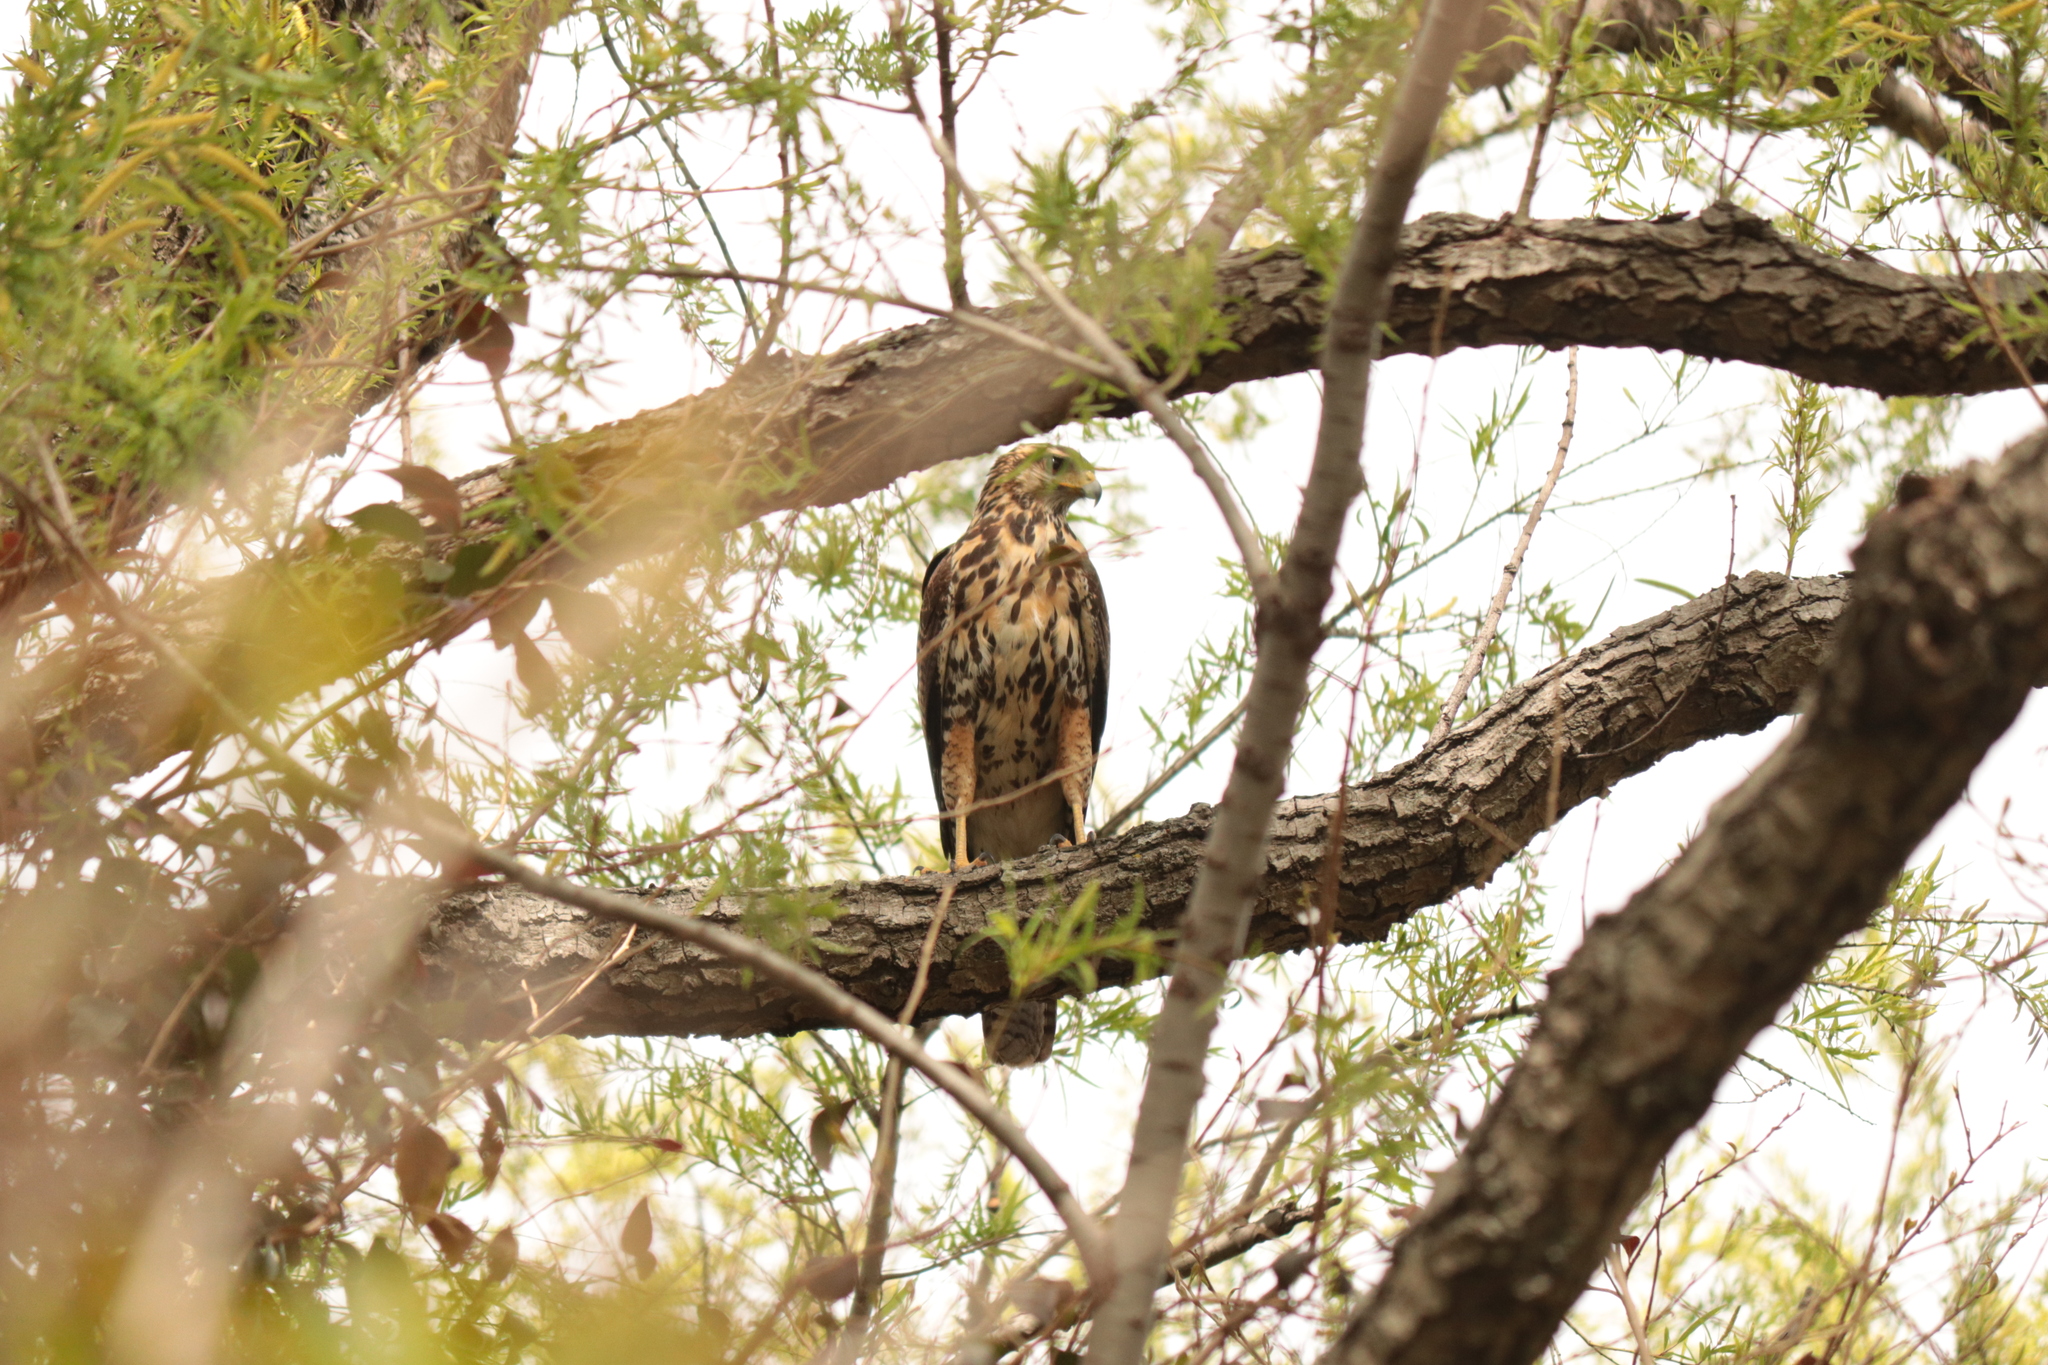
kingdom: Animalia
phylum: Chordata
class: Aves
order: Accipitriformes
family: Accipitridae
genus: Parabuteo
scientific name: Parabuteo unicinctus
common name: Harris's hawk
